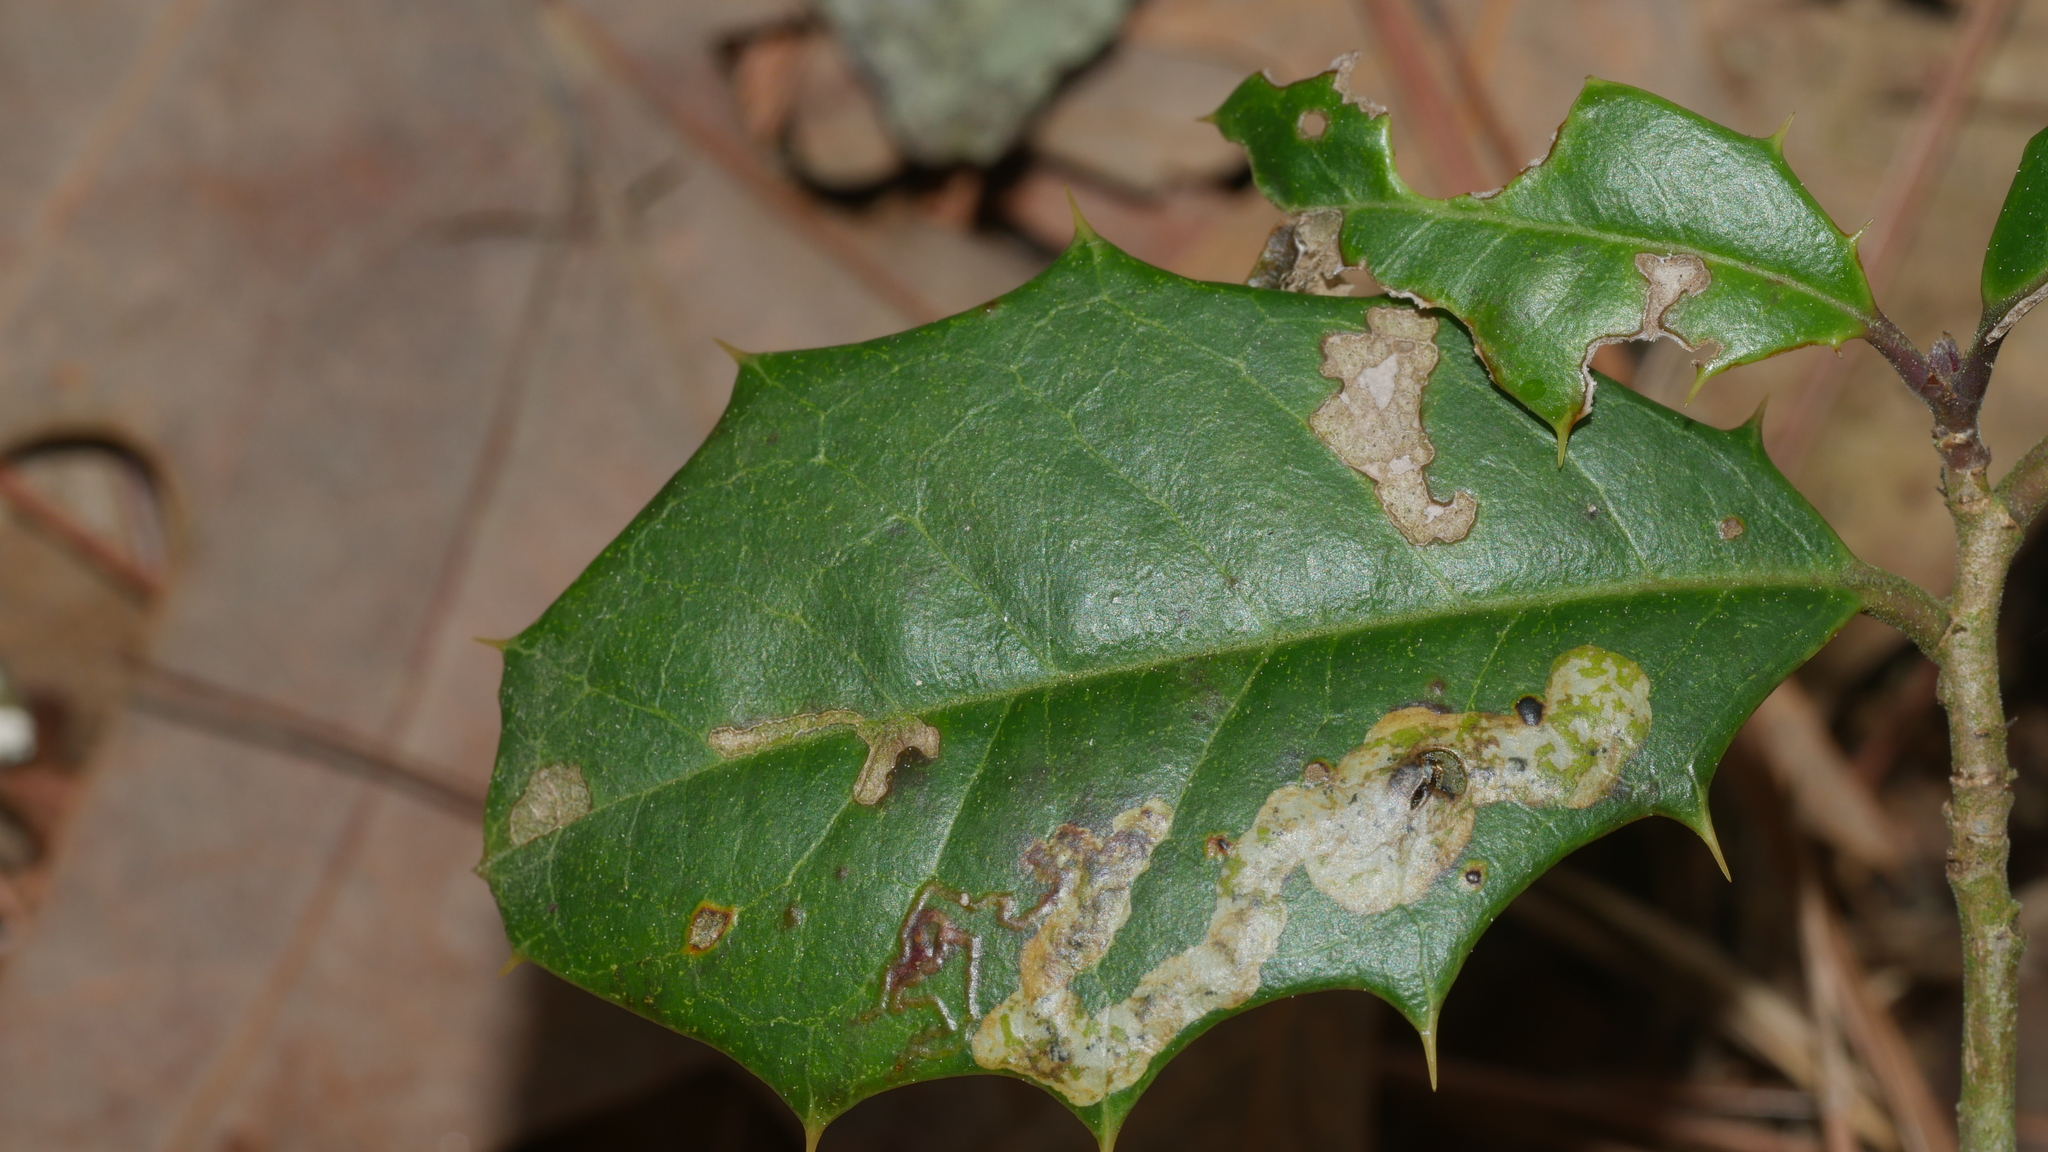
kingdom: Animalia
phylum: Arthropoda
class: Insecta
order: Diptera
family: Agromyzidae
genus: Phytomyza
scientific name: Phytomyza ilicicola
